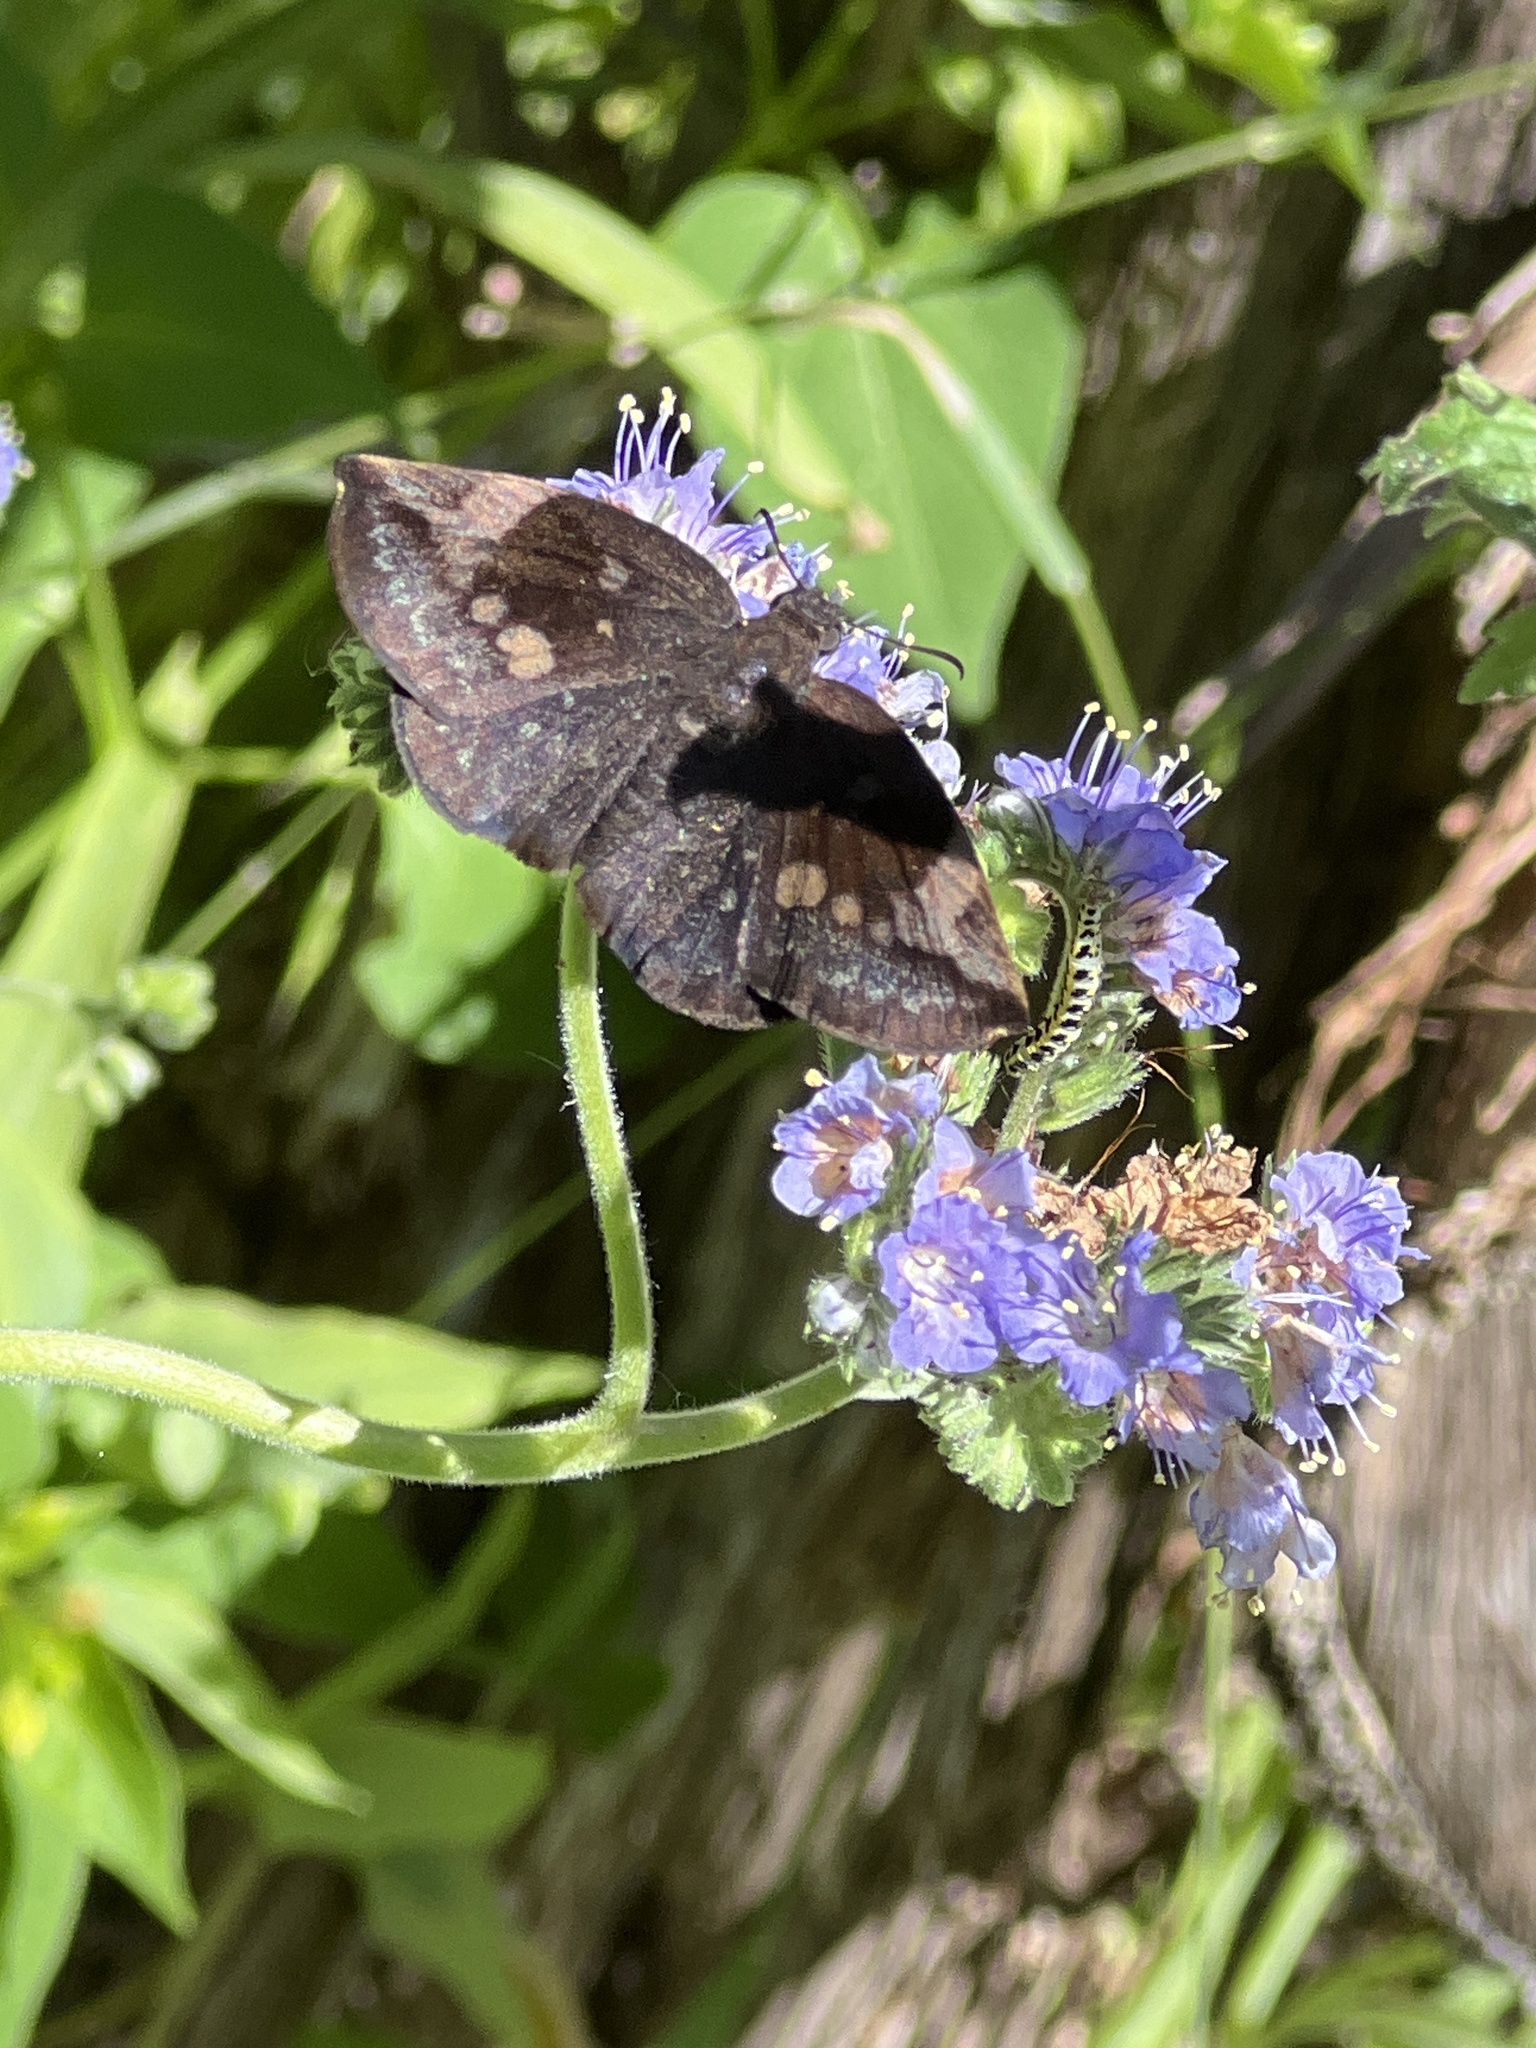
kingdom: Animalia
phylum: Arthropoda
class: Insecta
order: Lepidoptera
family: Hesperiidae
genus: Achlyodes
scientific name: Achlyodes thraso
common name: Sickle-winged skipper
